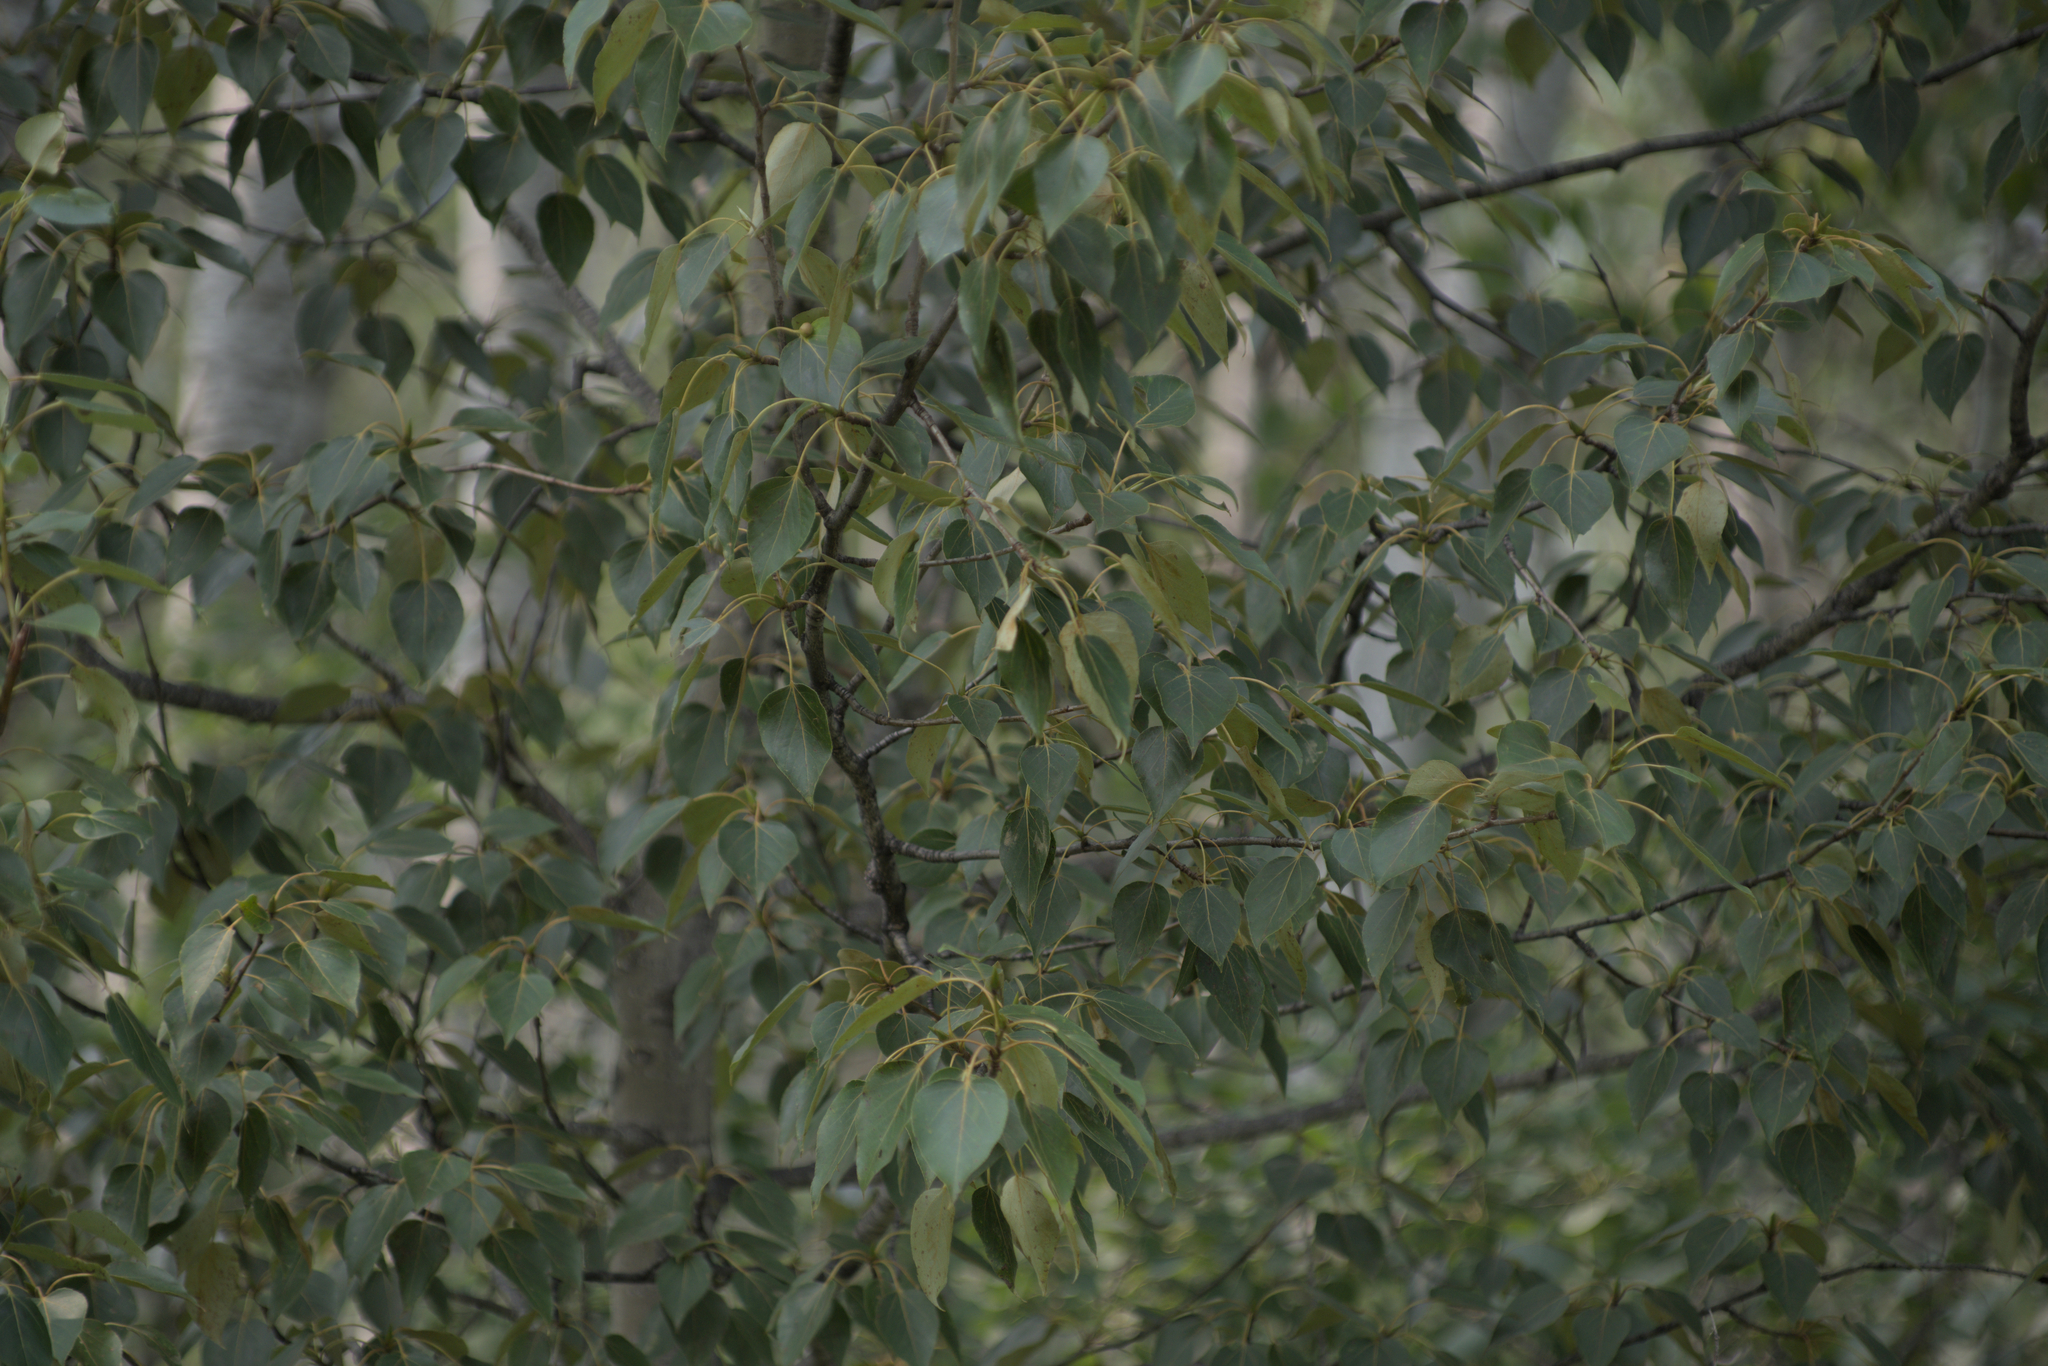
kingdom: Plantae
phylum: Tracheophyta
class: Magnoliopsida
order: Malpighiales
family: Salicaceae
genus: Populus
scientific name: Populus balsamifera
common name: Balsam poplar
